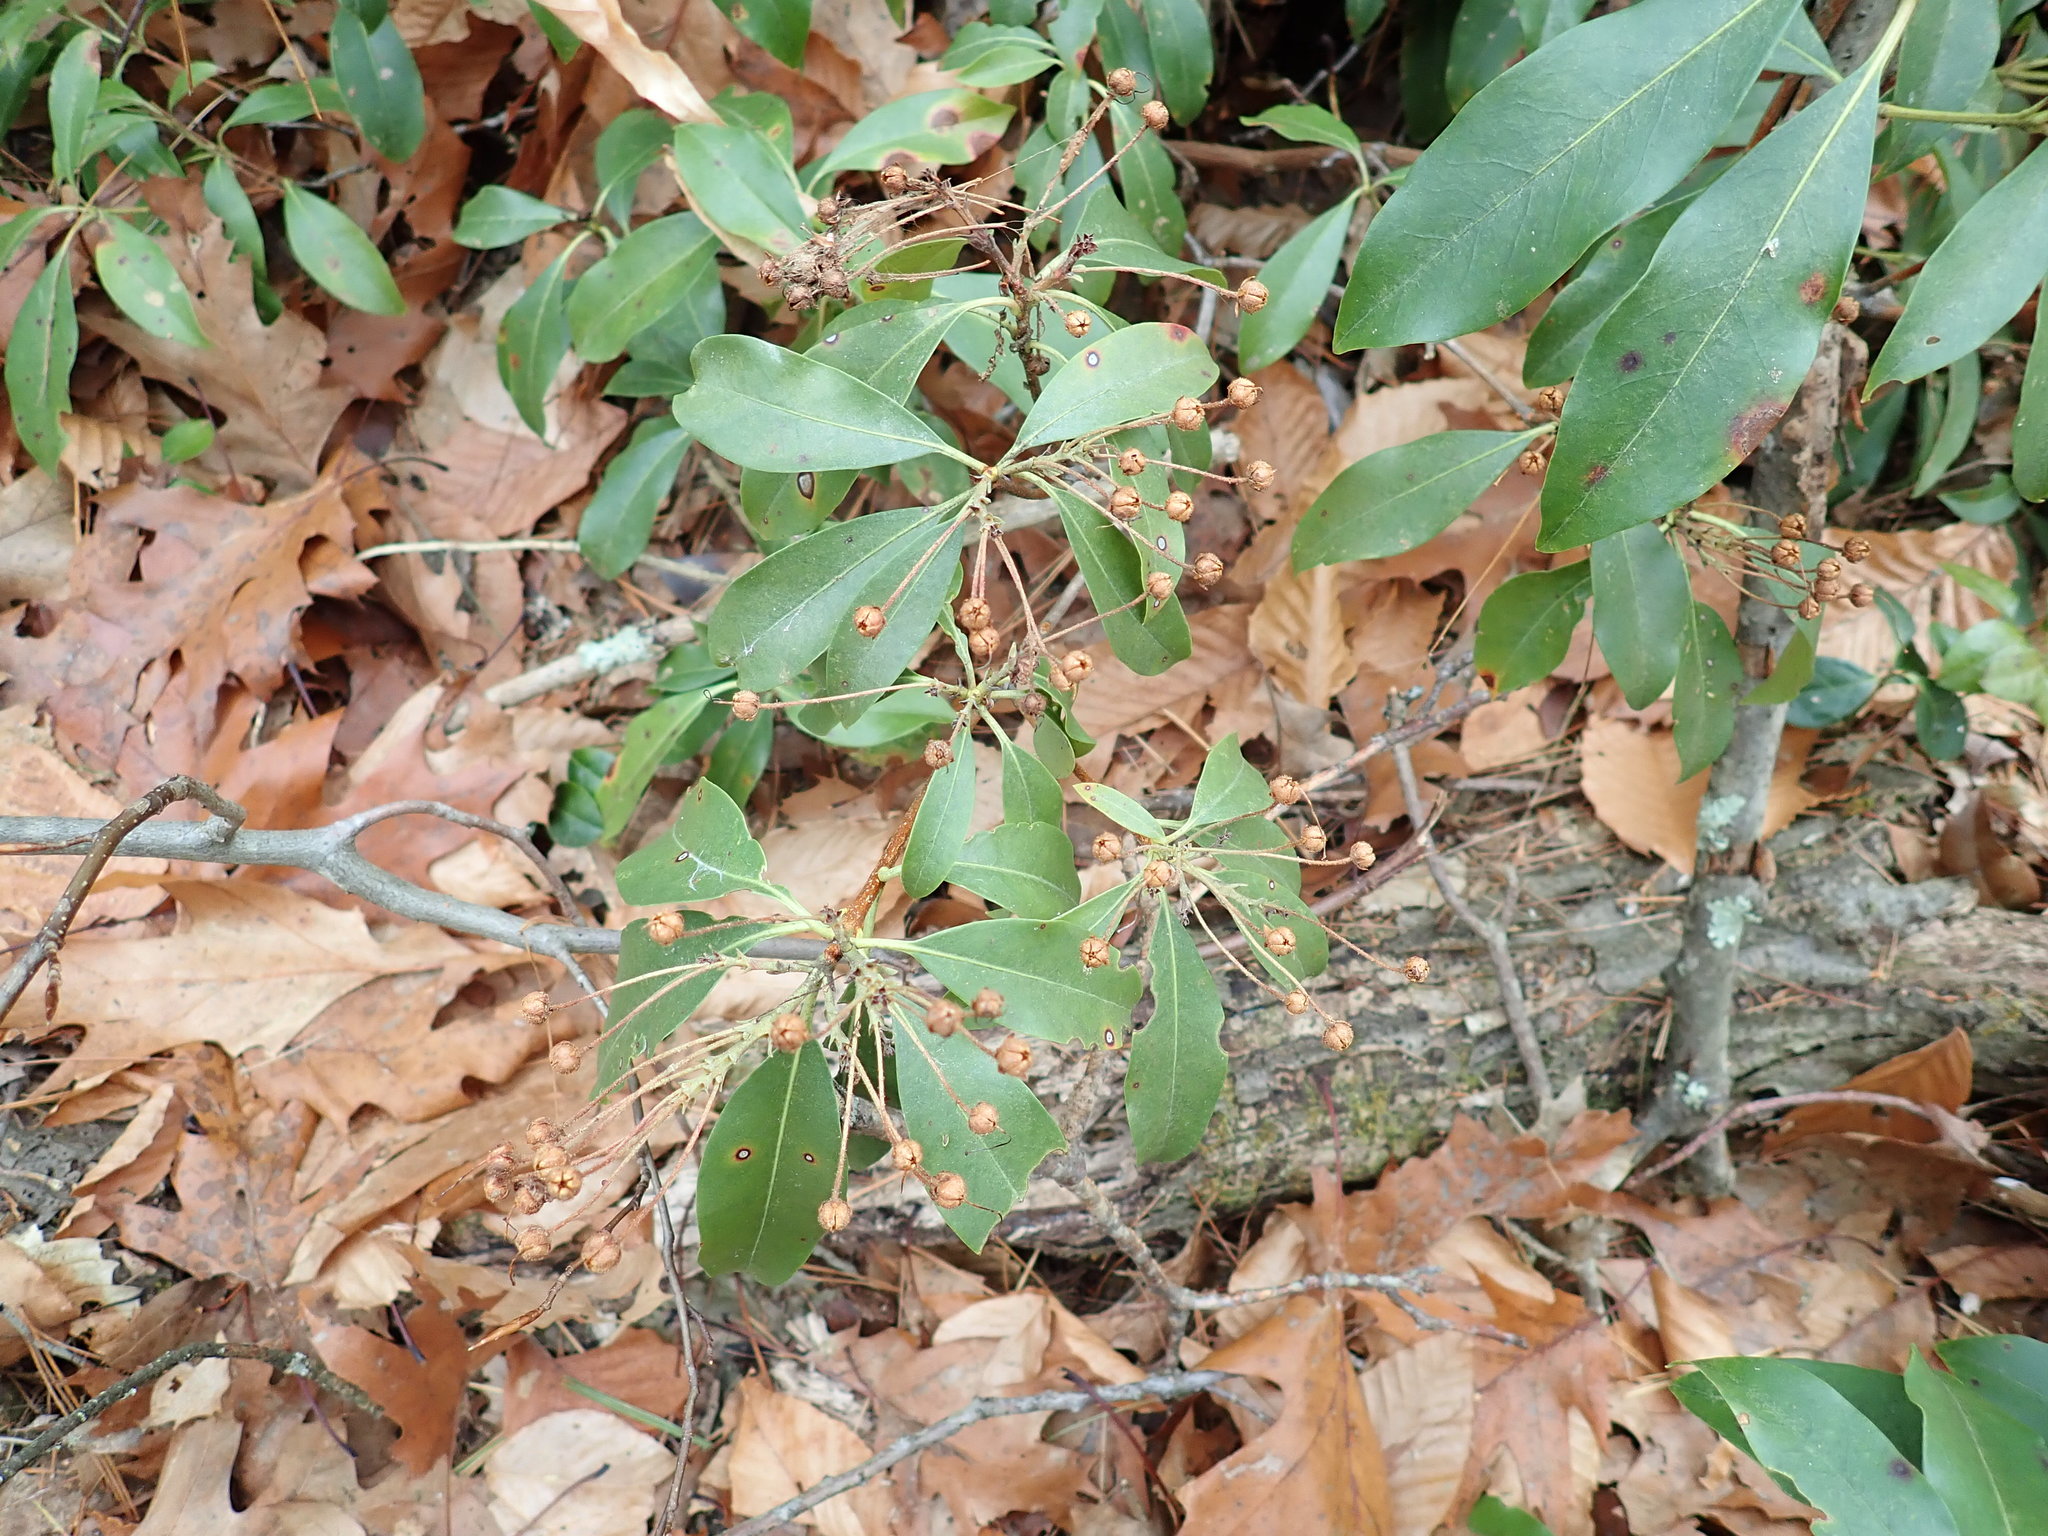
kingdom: Plantae
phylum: Tracheophyta
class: Magnoliopsida
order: Ericales
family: Ericaceae
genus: Kalmia
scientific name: Kalmia latifolia
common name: Mountain-laurel
